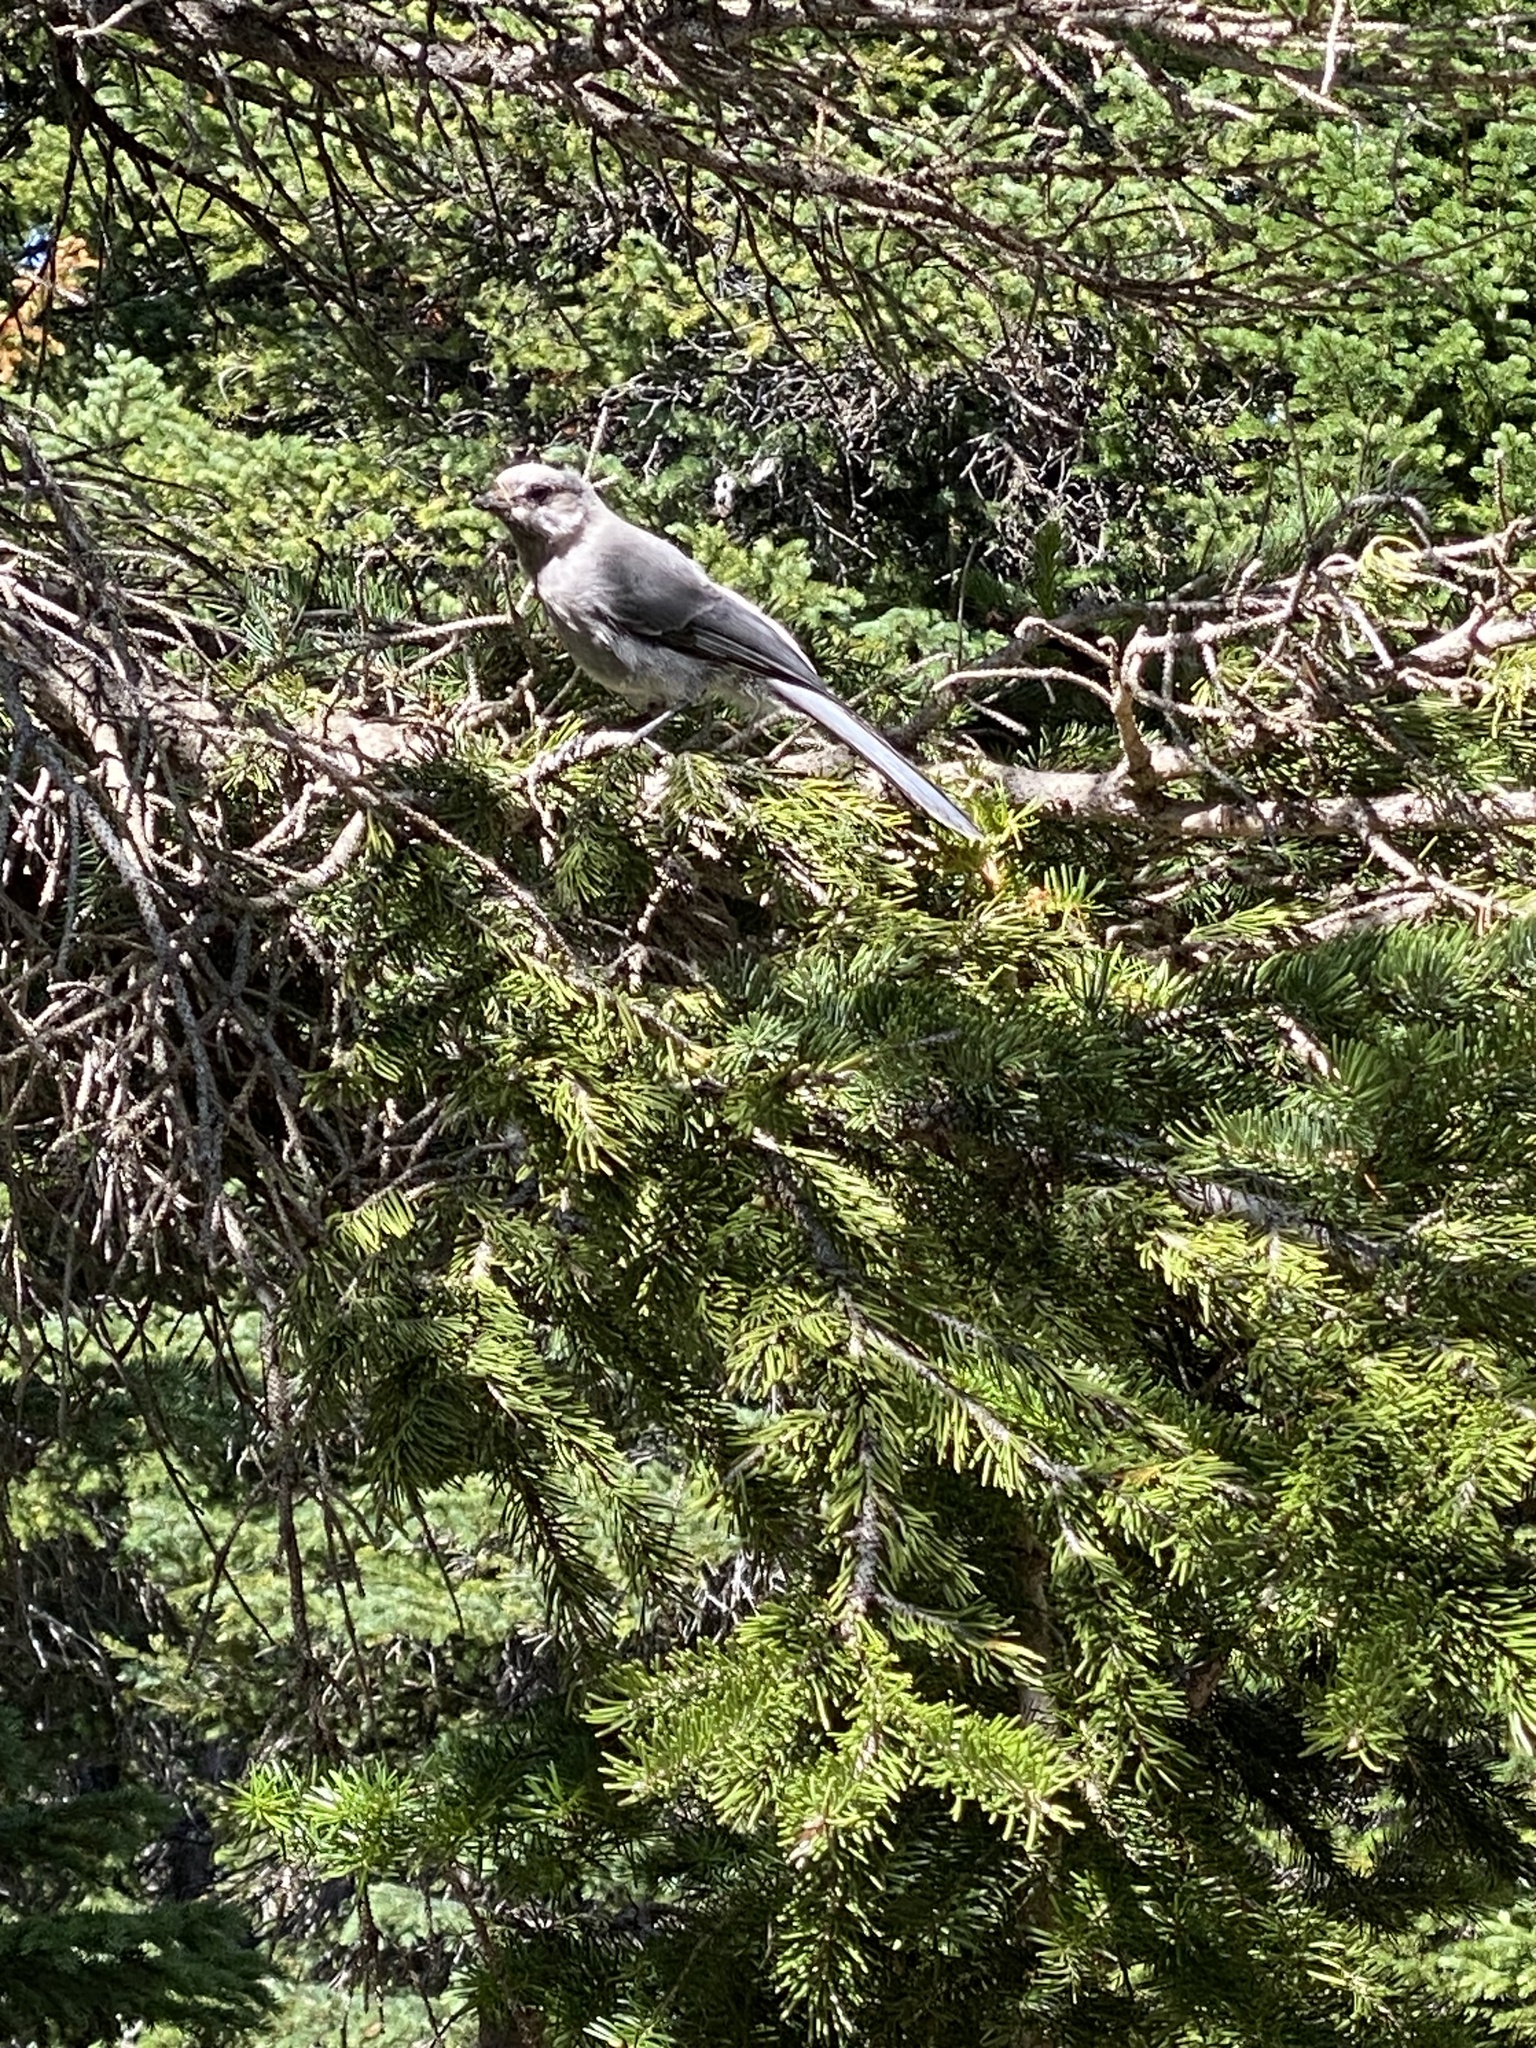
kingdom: Animalia
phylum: Chordata
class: Aves
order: Passeriformes
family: Corvidae
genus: Perisoreus
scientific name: Perisoreus canadensis
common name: Gray jay
